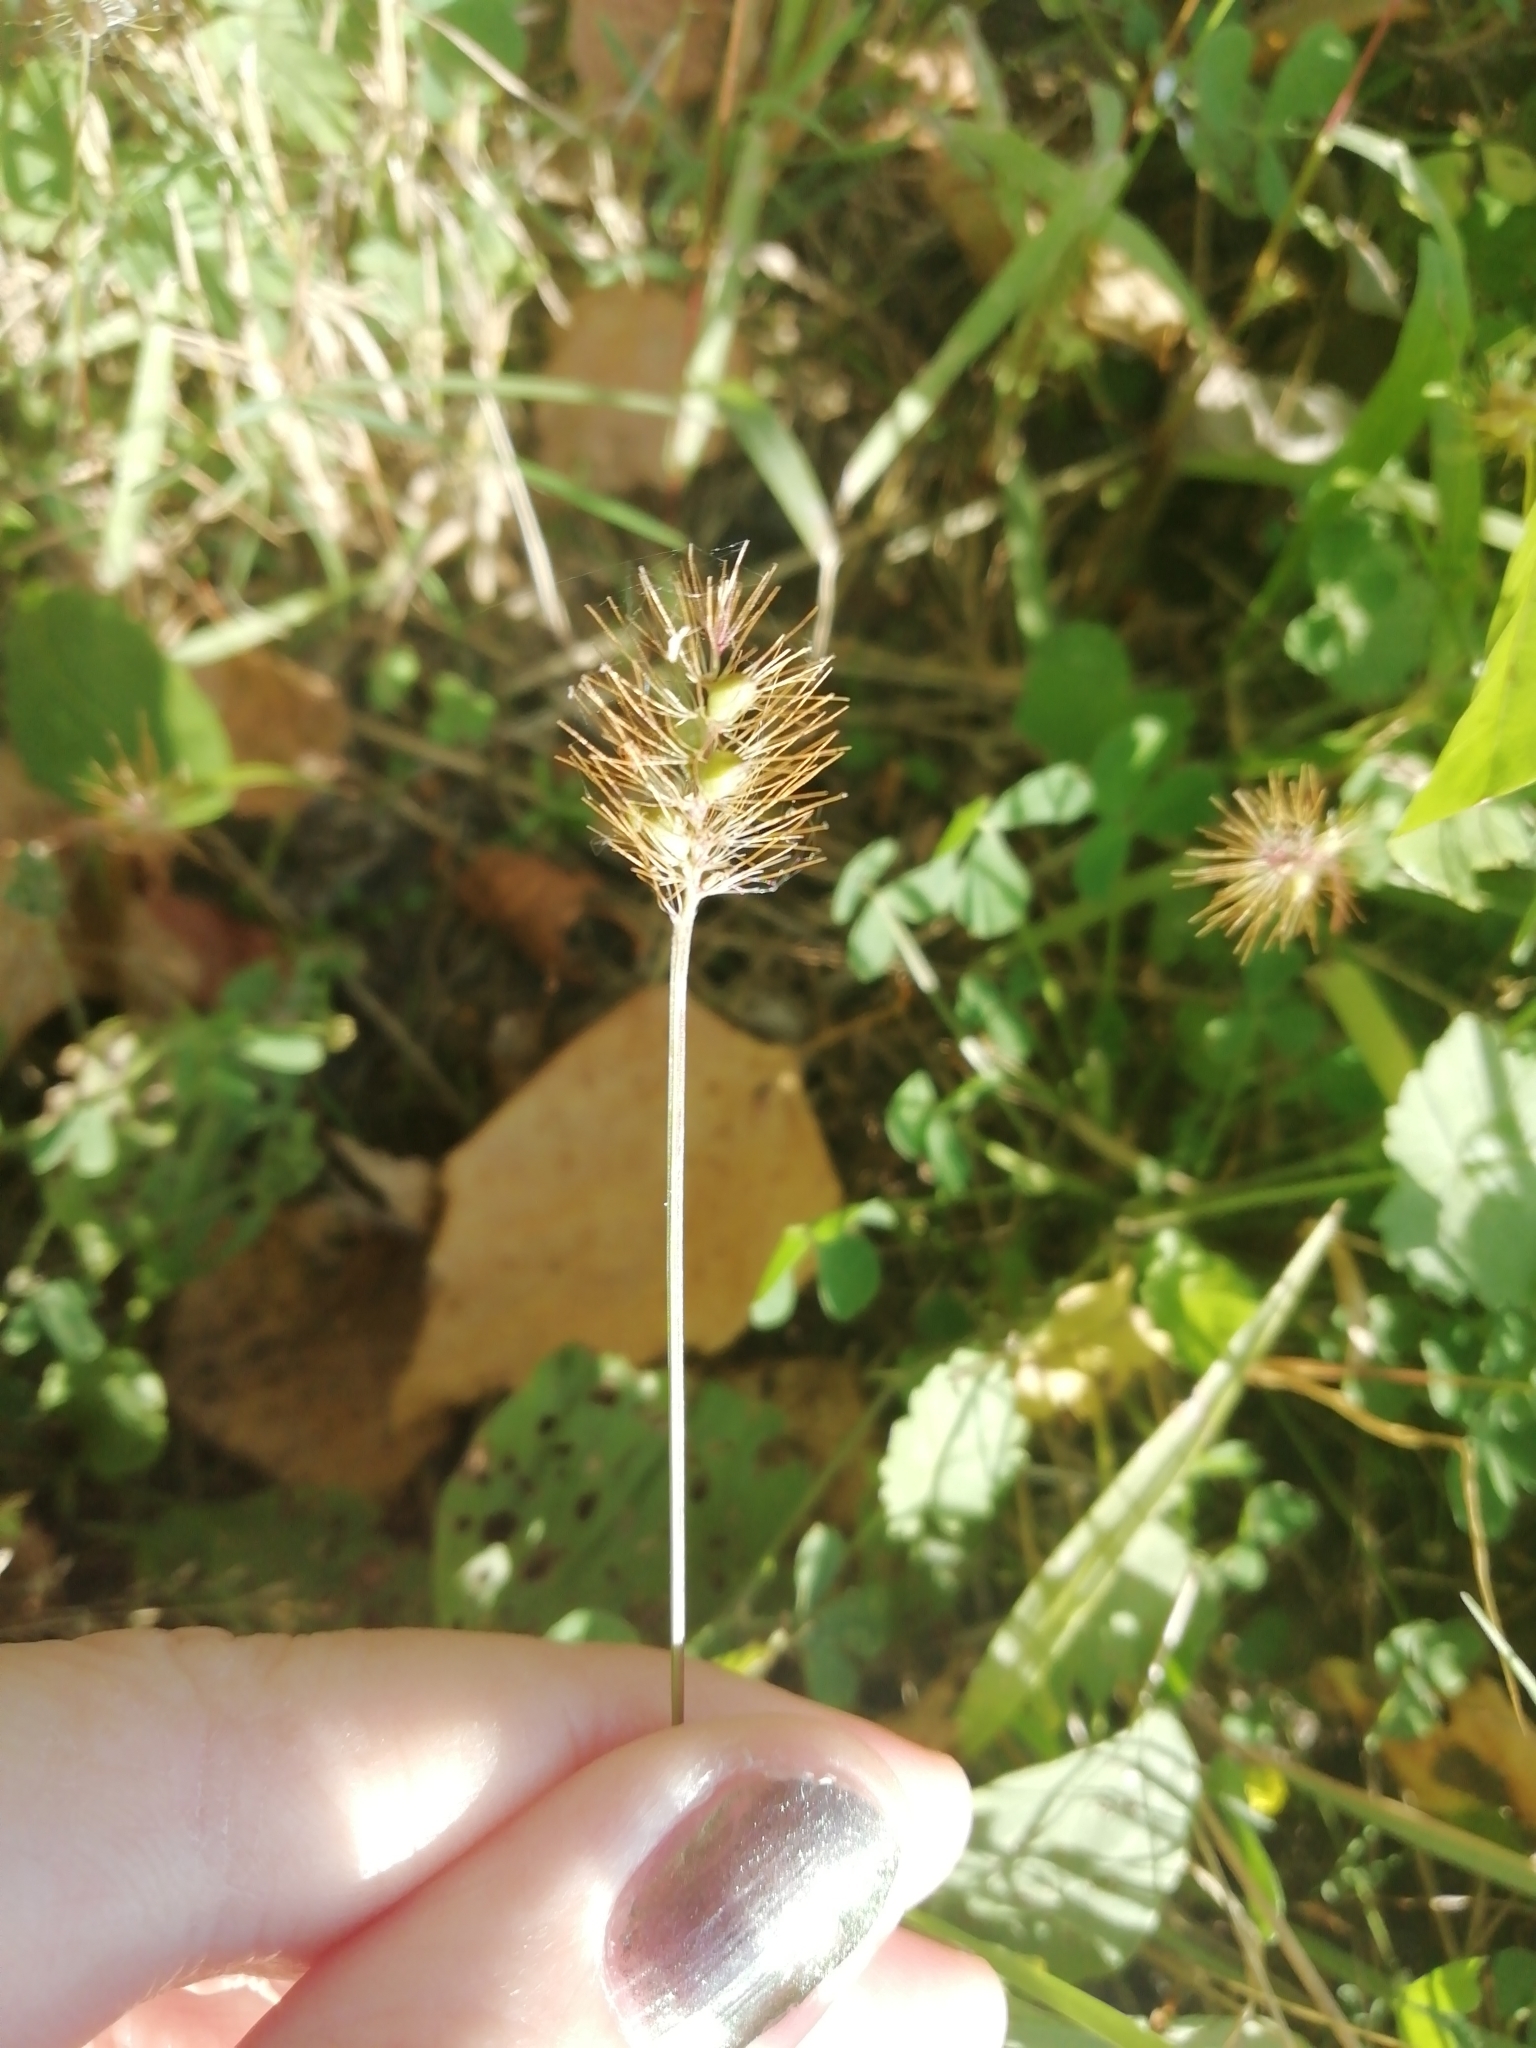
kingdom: Plantae
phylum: Tracheophyta
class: Liliopsida
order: Poales
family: Poaceae
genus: Setaria
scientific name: Setaria pumila
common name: Yellow bristle-grass
